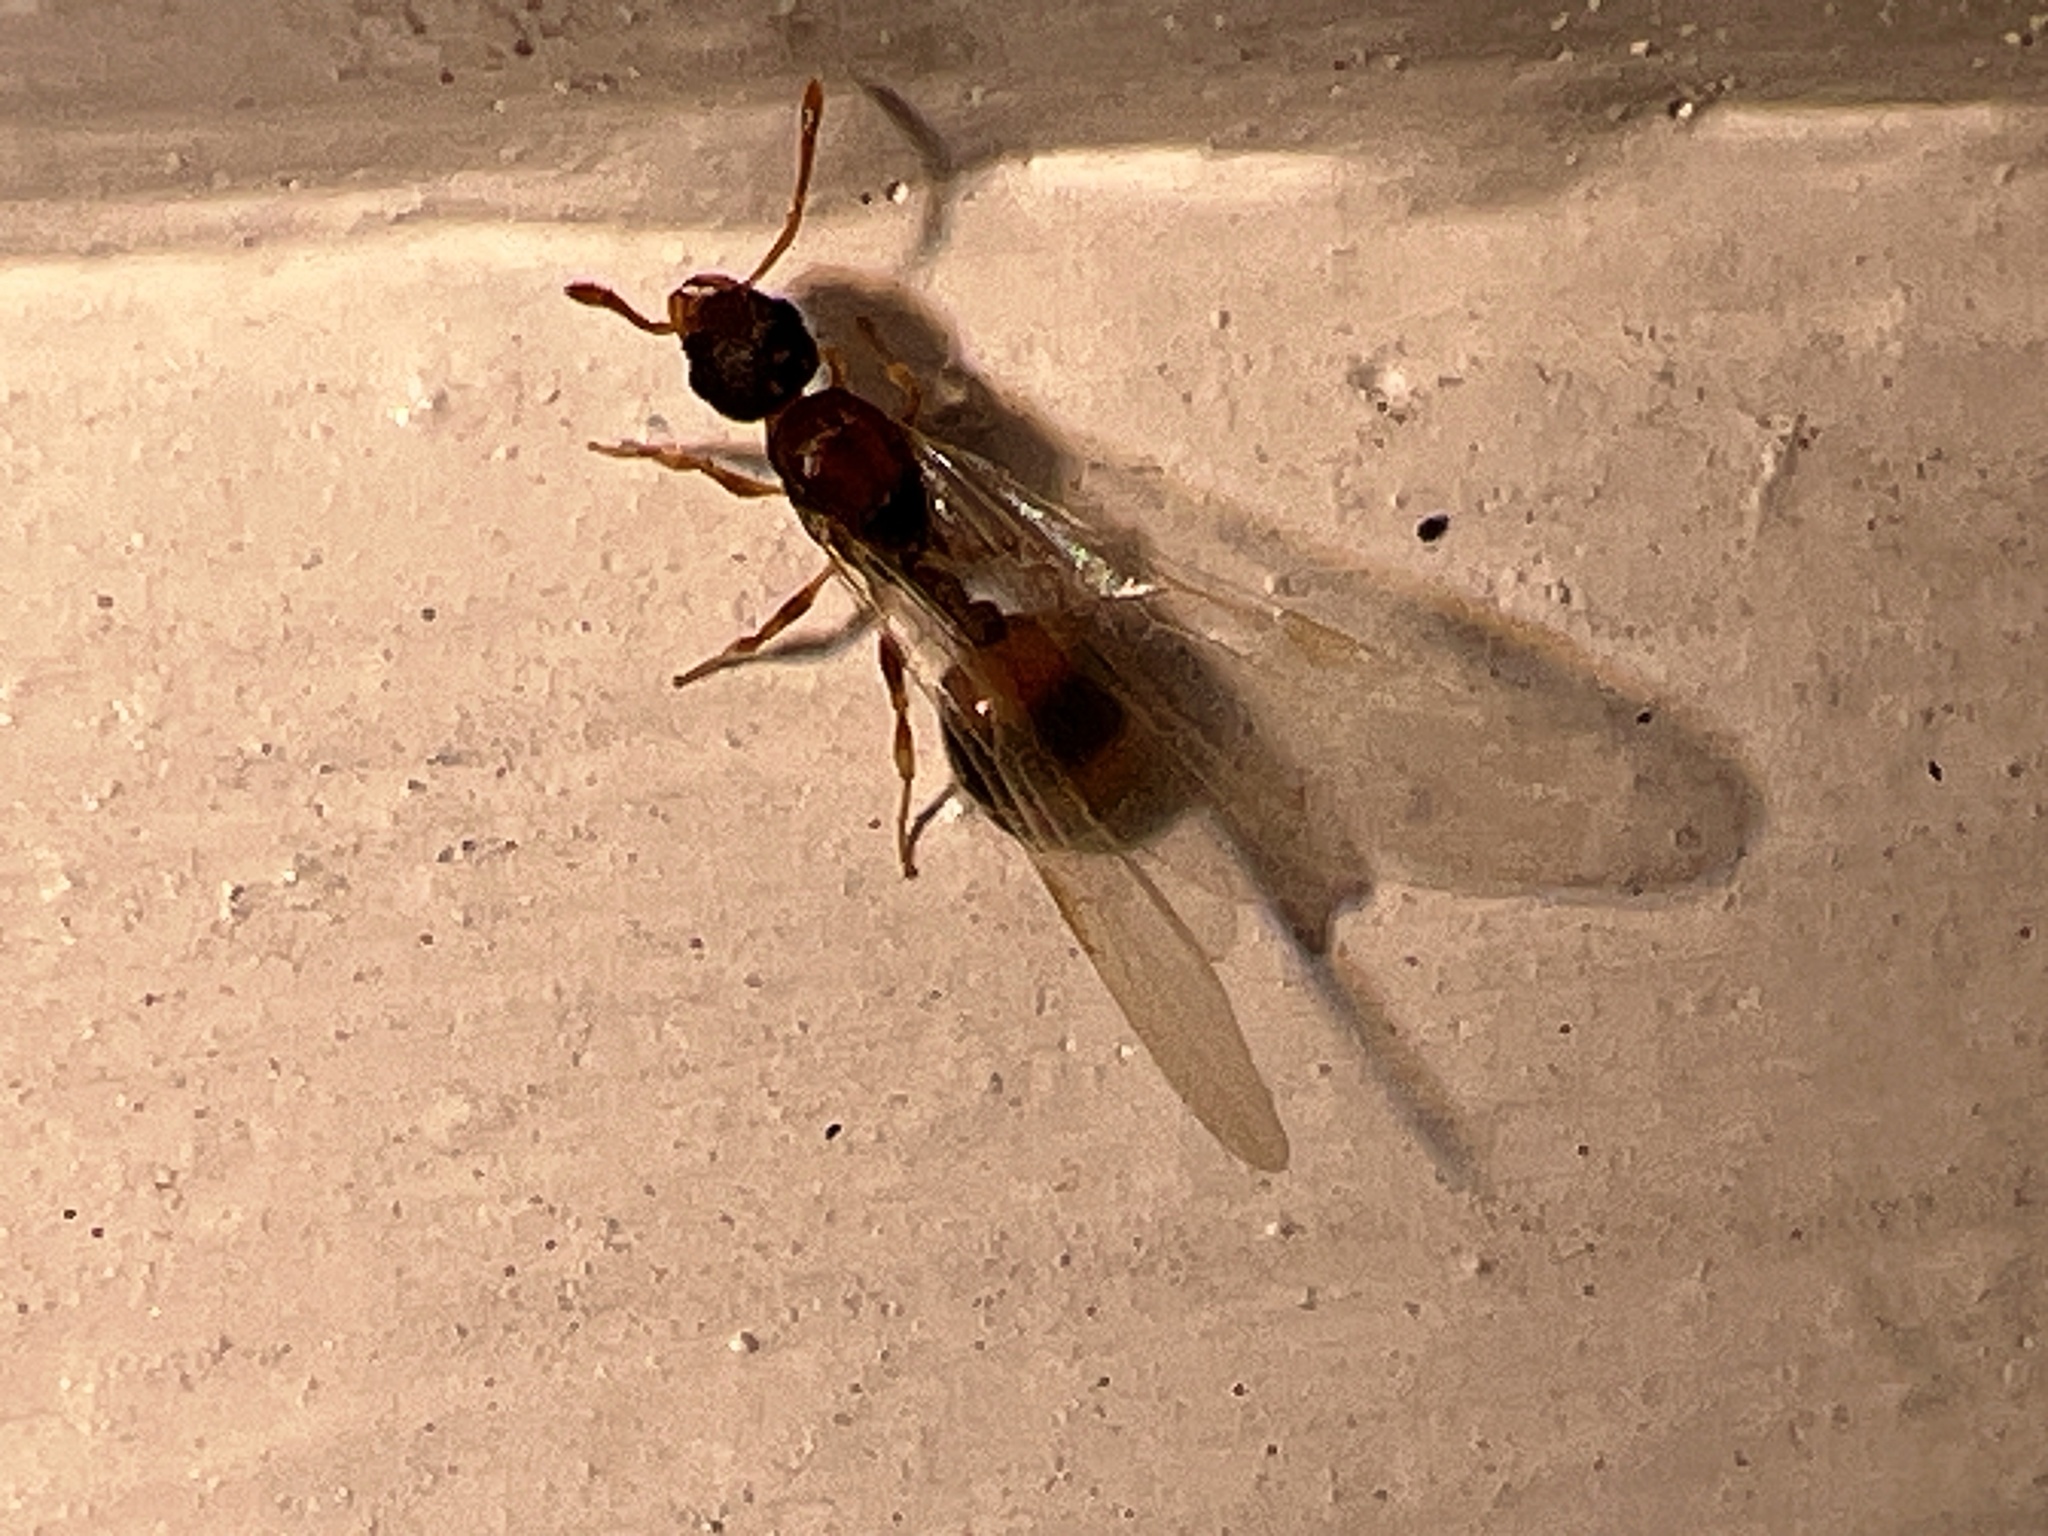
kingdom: Animalia
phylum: Arthropoda
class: Insecta
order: Hymenoptera
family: Formicidae
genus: Temnothorax
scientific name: Temnothorax curvispinosus
